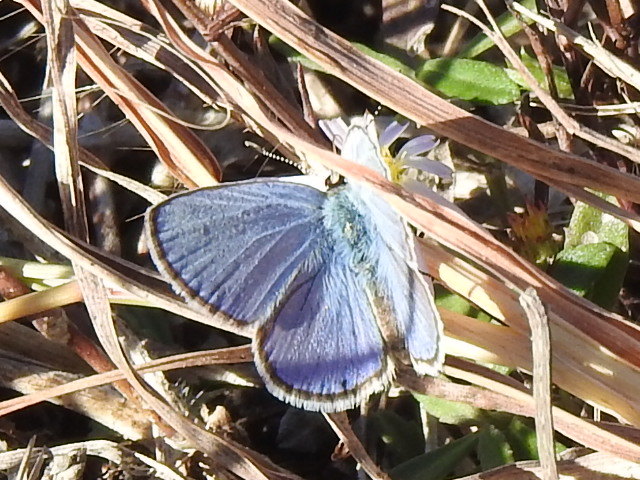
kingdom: Animalia
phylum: Arthropoda
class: Insecta
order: Lepidoptera
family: Lycaenidae
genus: Hemiargus
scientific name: Hemiargus ceraunus
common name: Ceraunus blue
